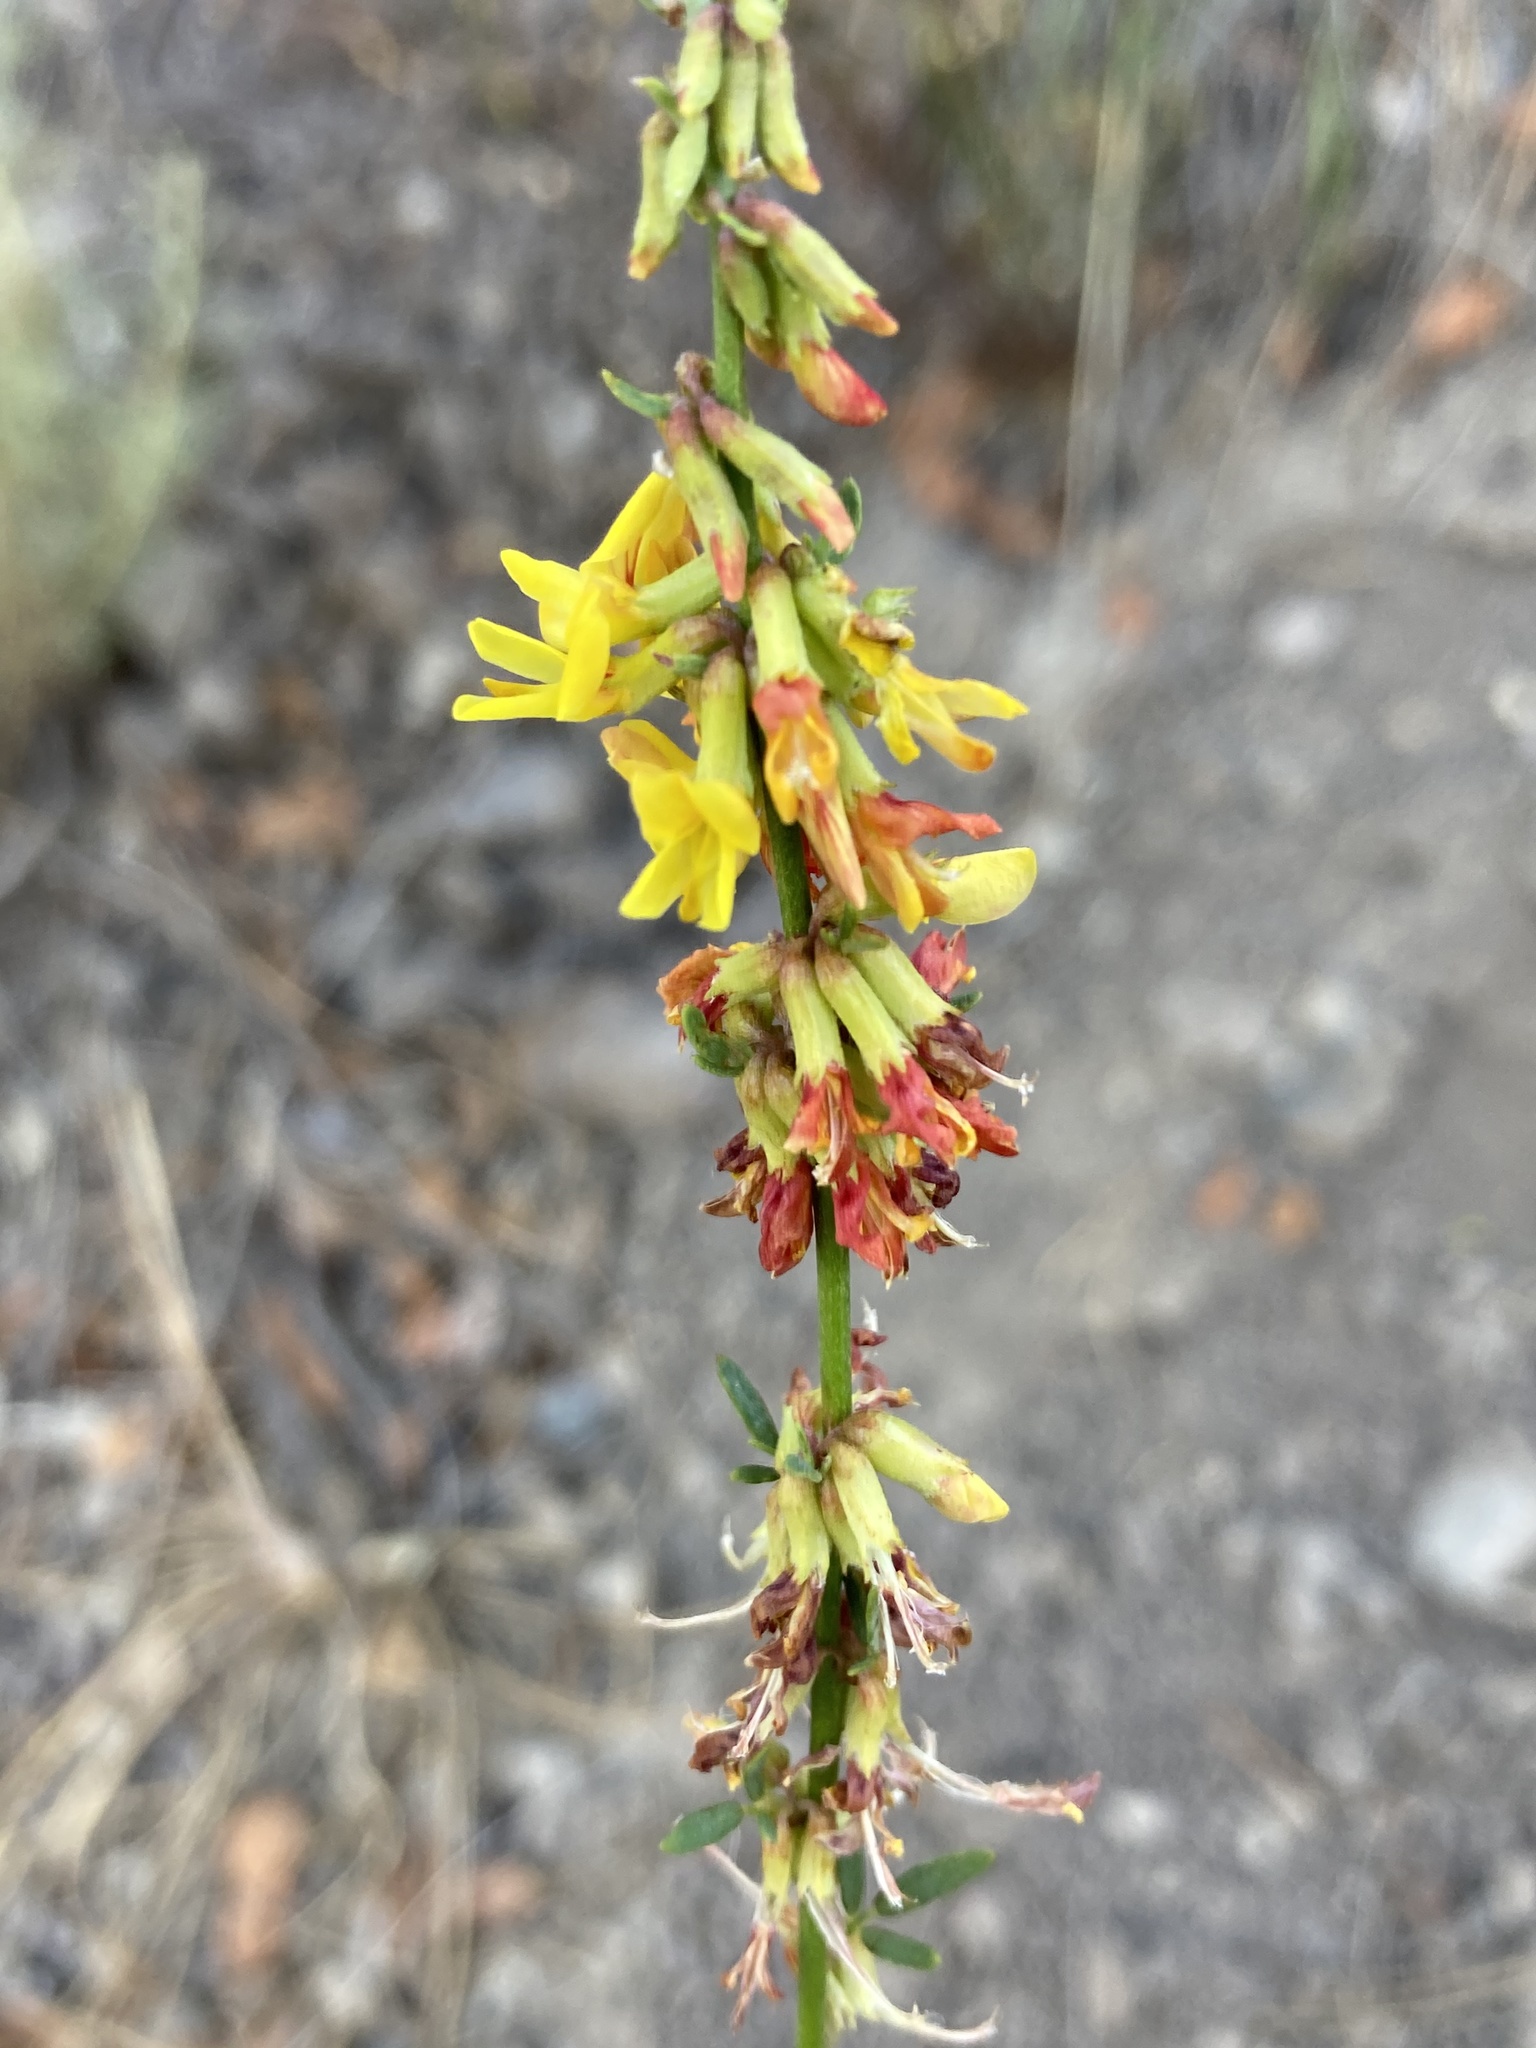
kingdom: Plantae
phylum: Tracheophyta
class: Magnoliopsida
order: Fabales
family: Fabaceae
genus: Acmispon
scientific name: Acmispon glaber
